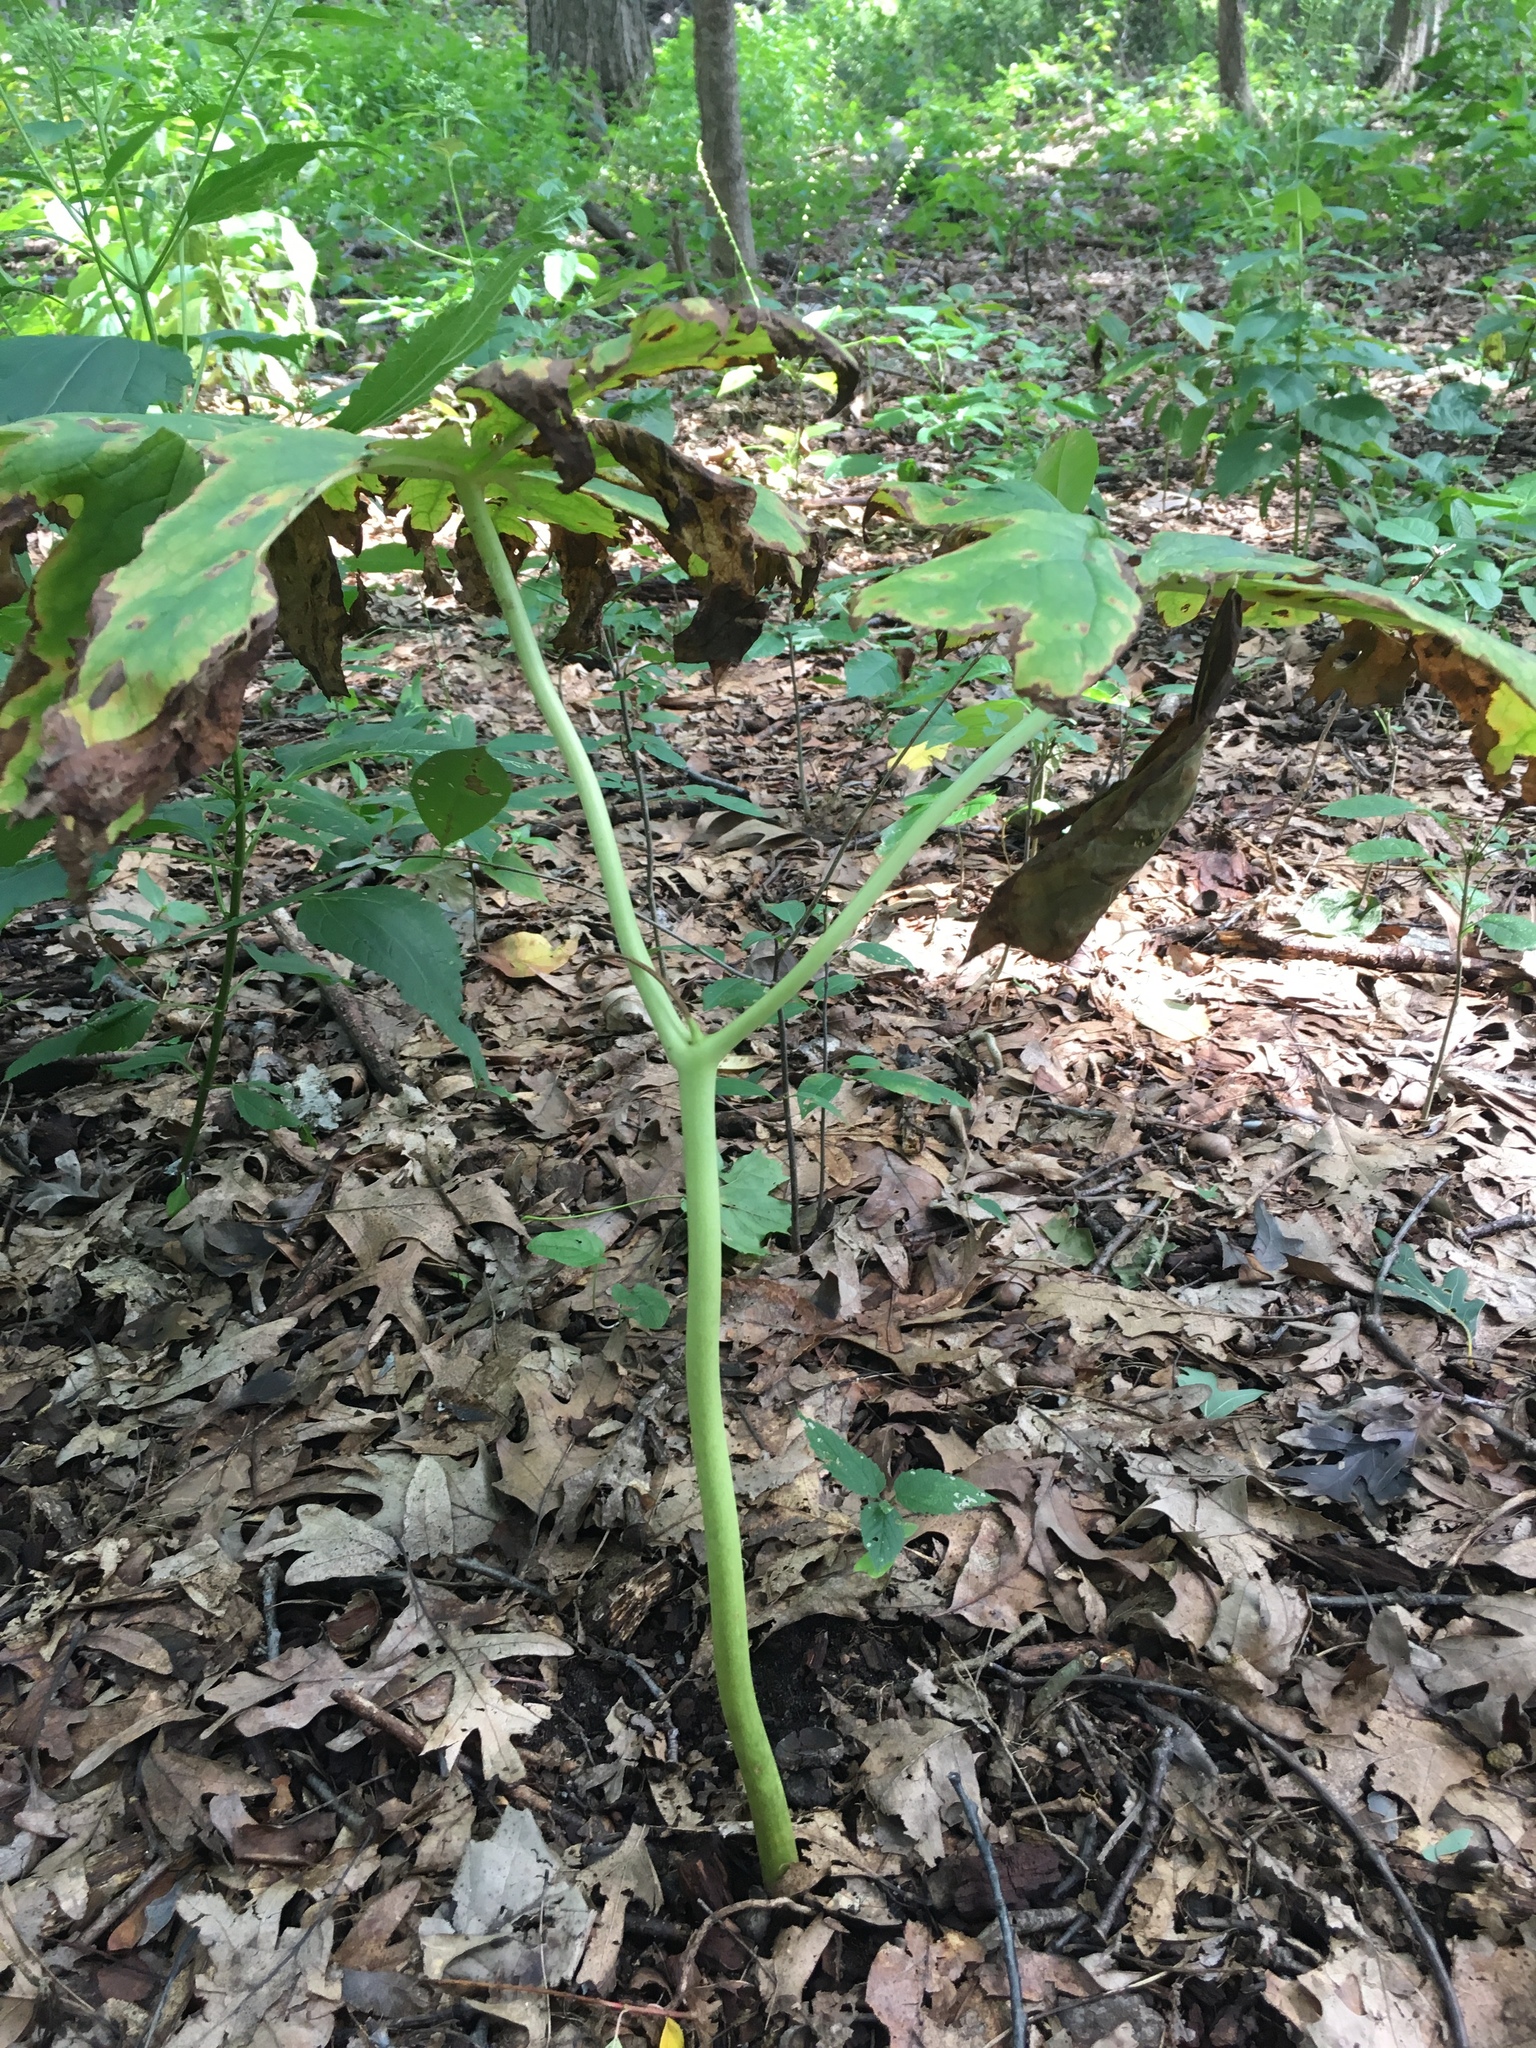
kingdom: Plantae
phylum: Tracheophyta
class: Magnoliopsida
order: Ranunculales
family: Berberidaceae
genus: Podophyllum
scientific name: Podophyllum peltatum
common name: Wild mandrake
